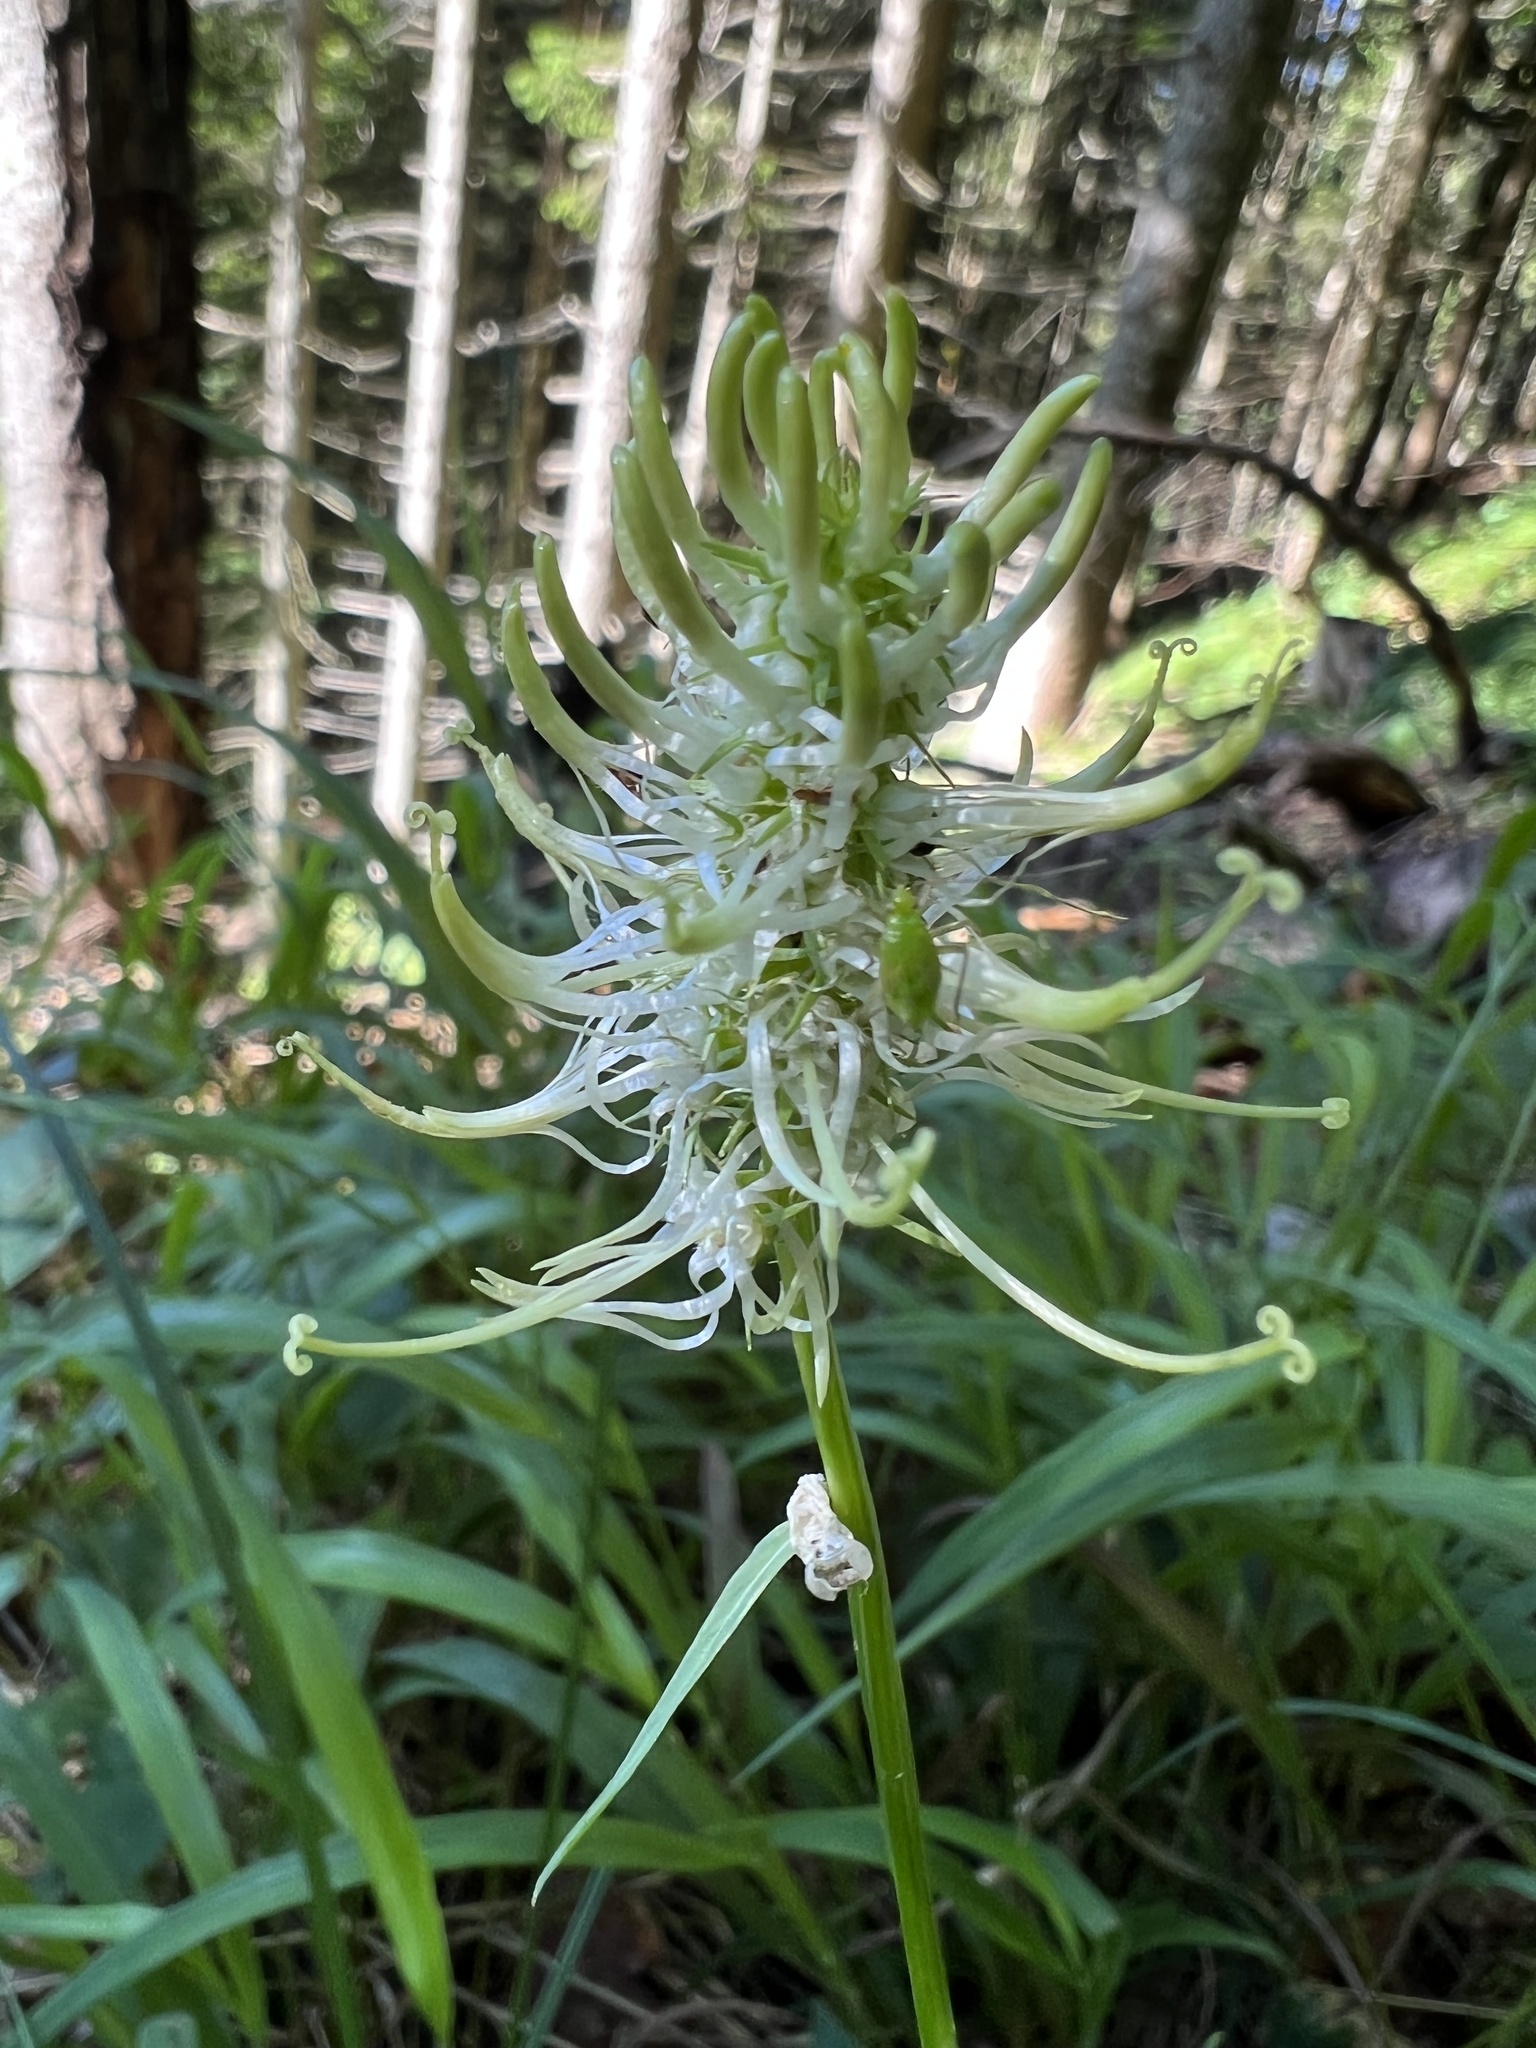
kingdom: Plantae
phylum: Tracheophyta
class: Magnoliopsida
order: Asterales
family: Campanulaceae
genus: Phyteuma
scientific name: Phyteuma spicatum
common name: Spiked rampion
